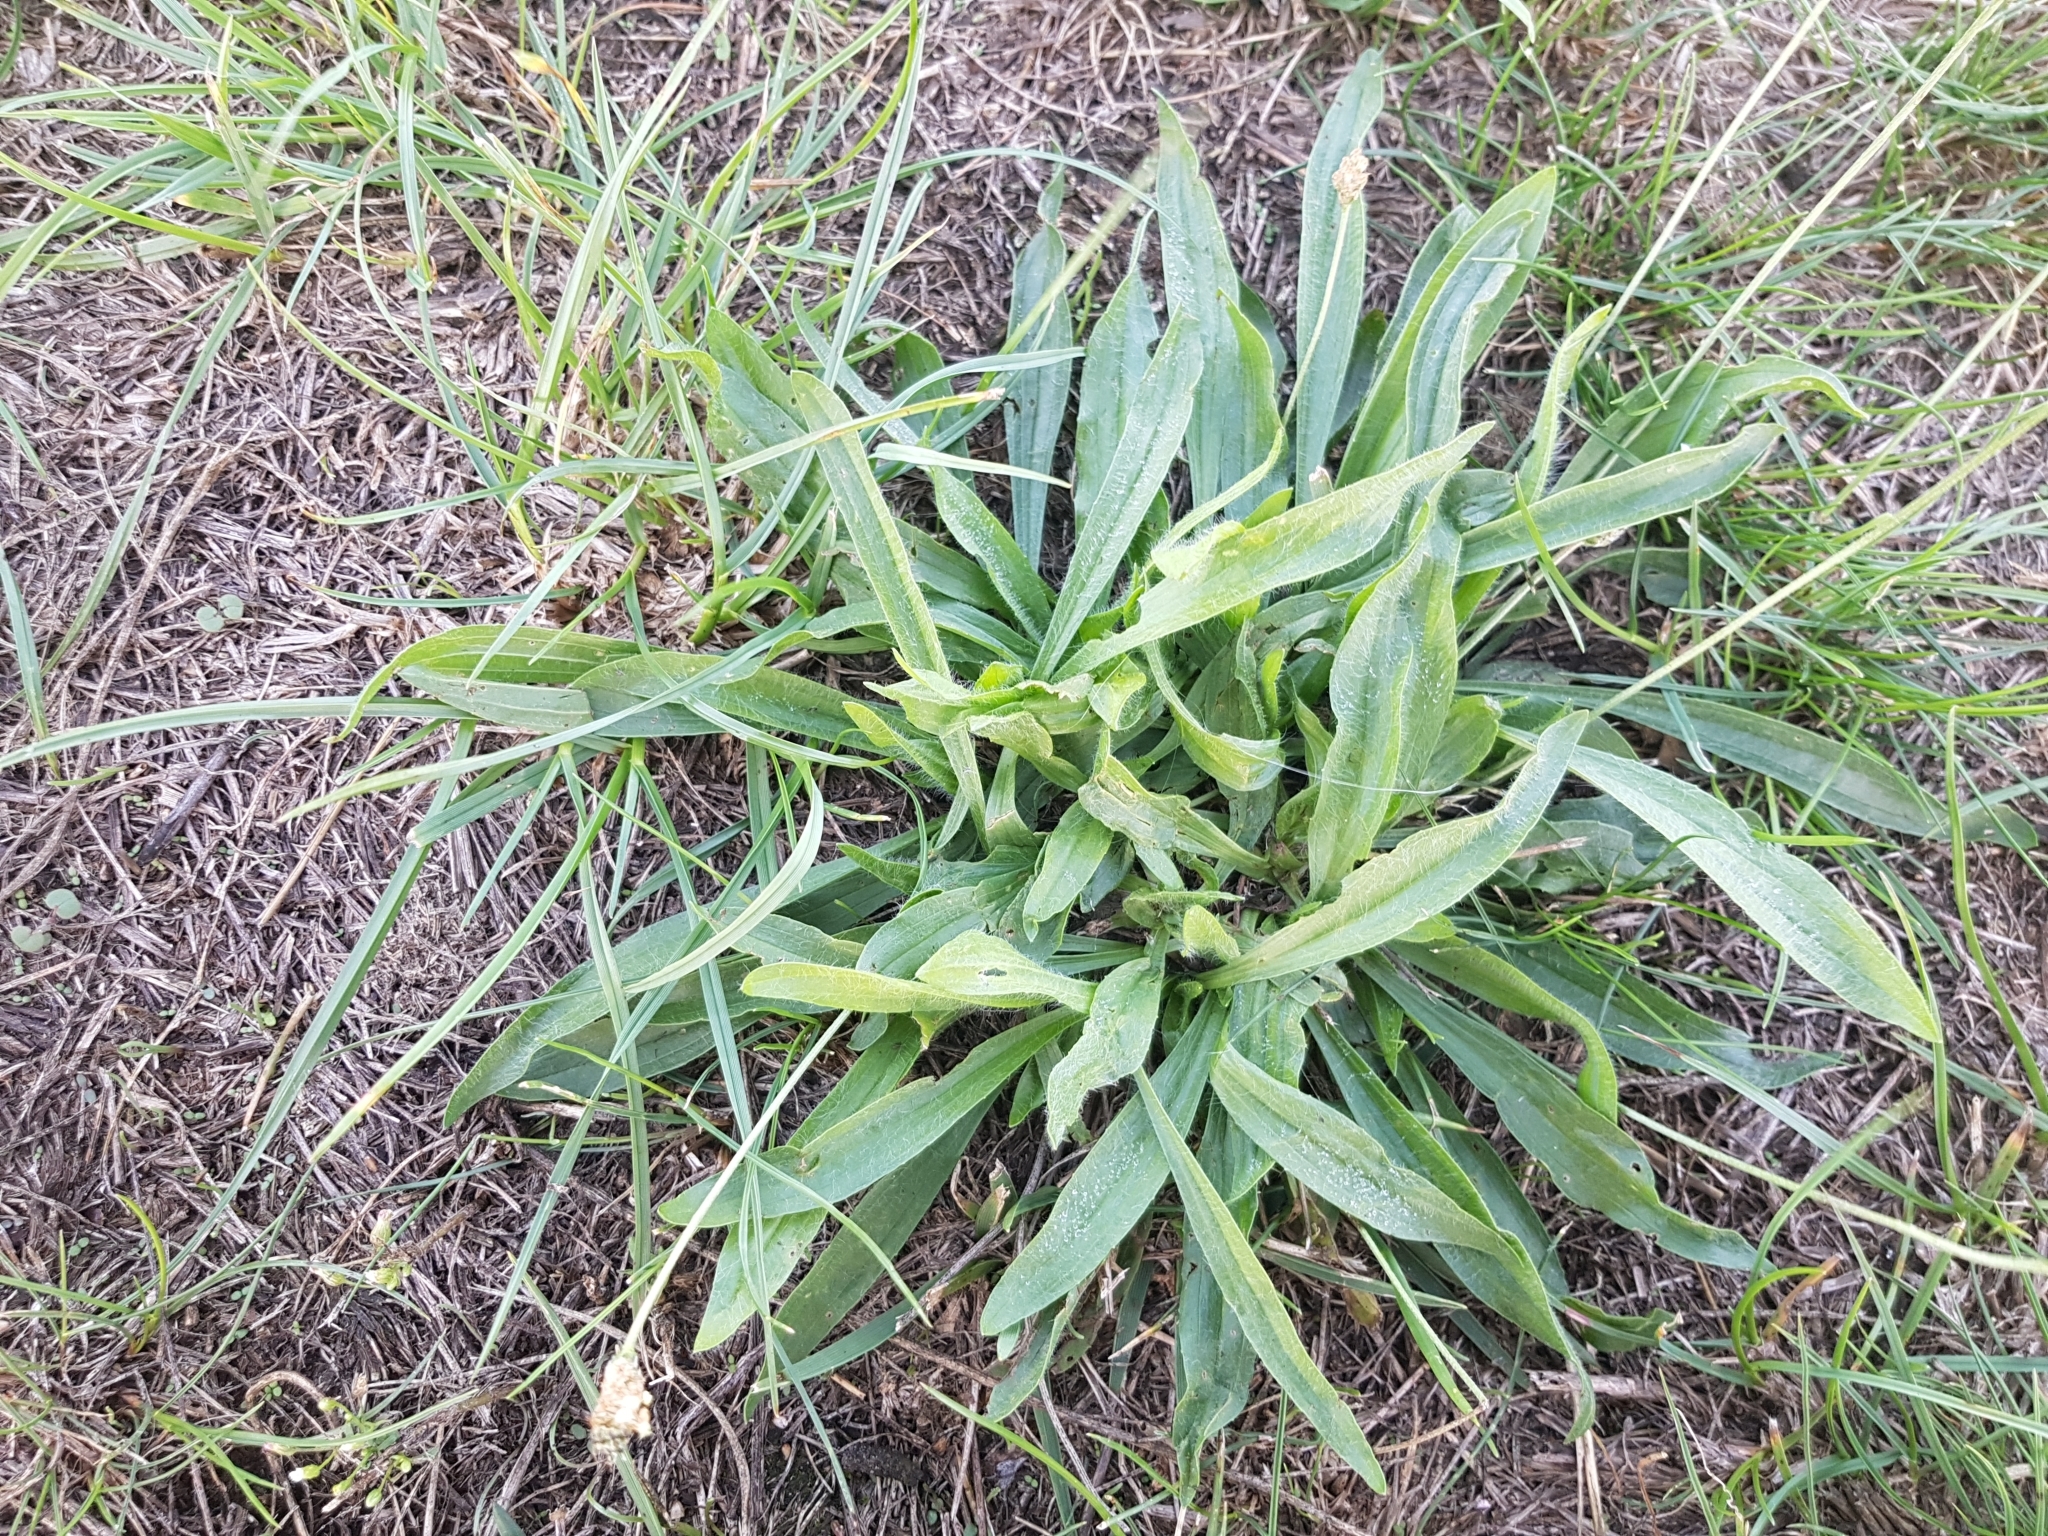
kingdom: Plantae
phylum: Tracheophyta
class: Magnoliopsida
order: Lamiales
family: Plantaginaceae
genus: Plantago
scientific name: Plantago lanceolata
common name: Ribwort plantain
